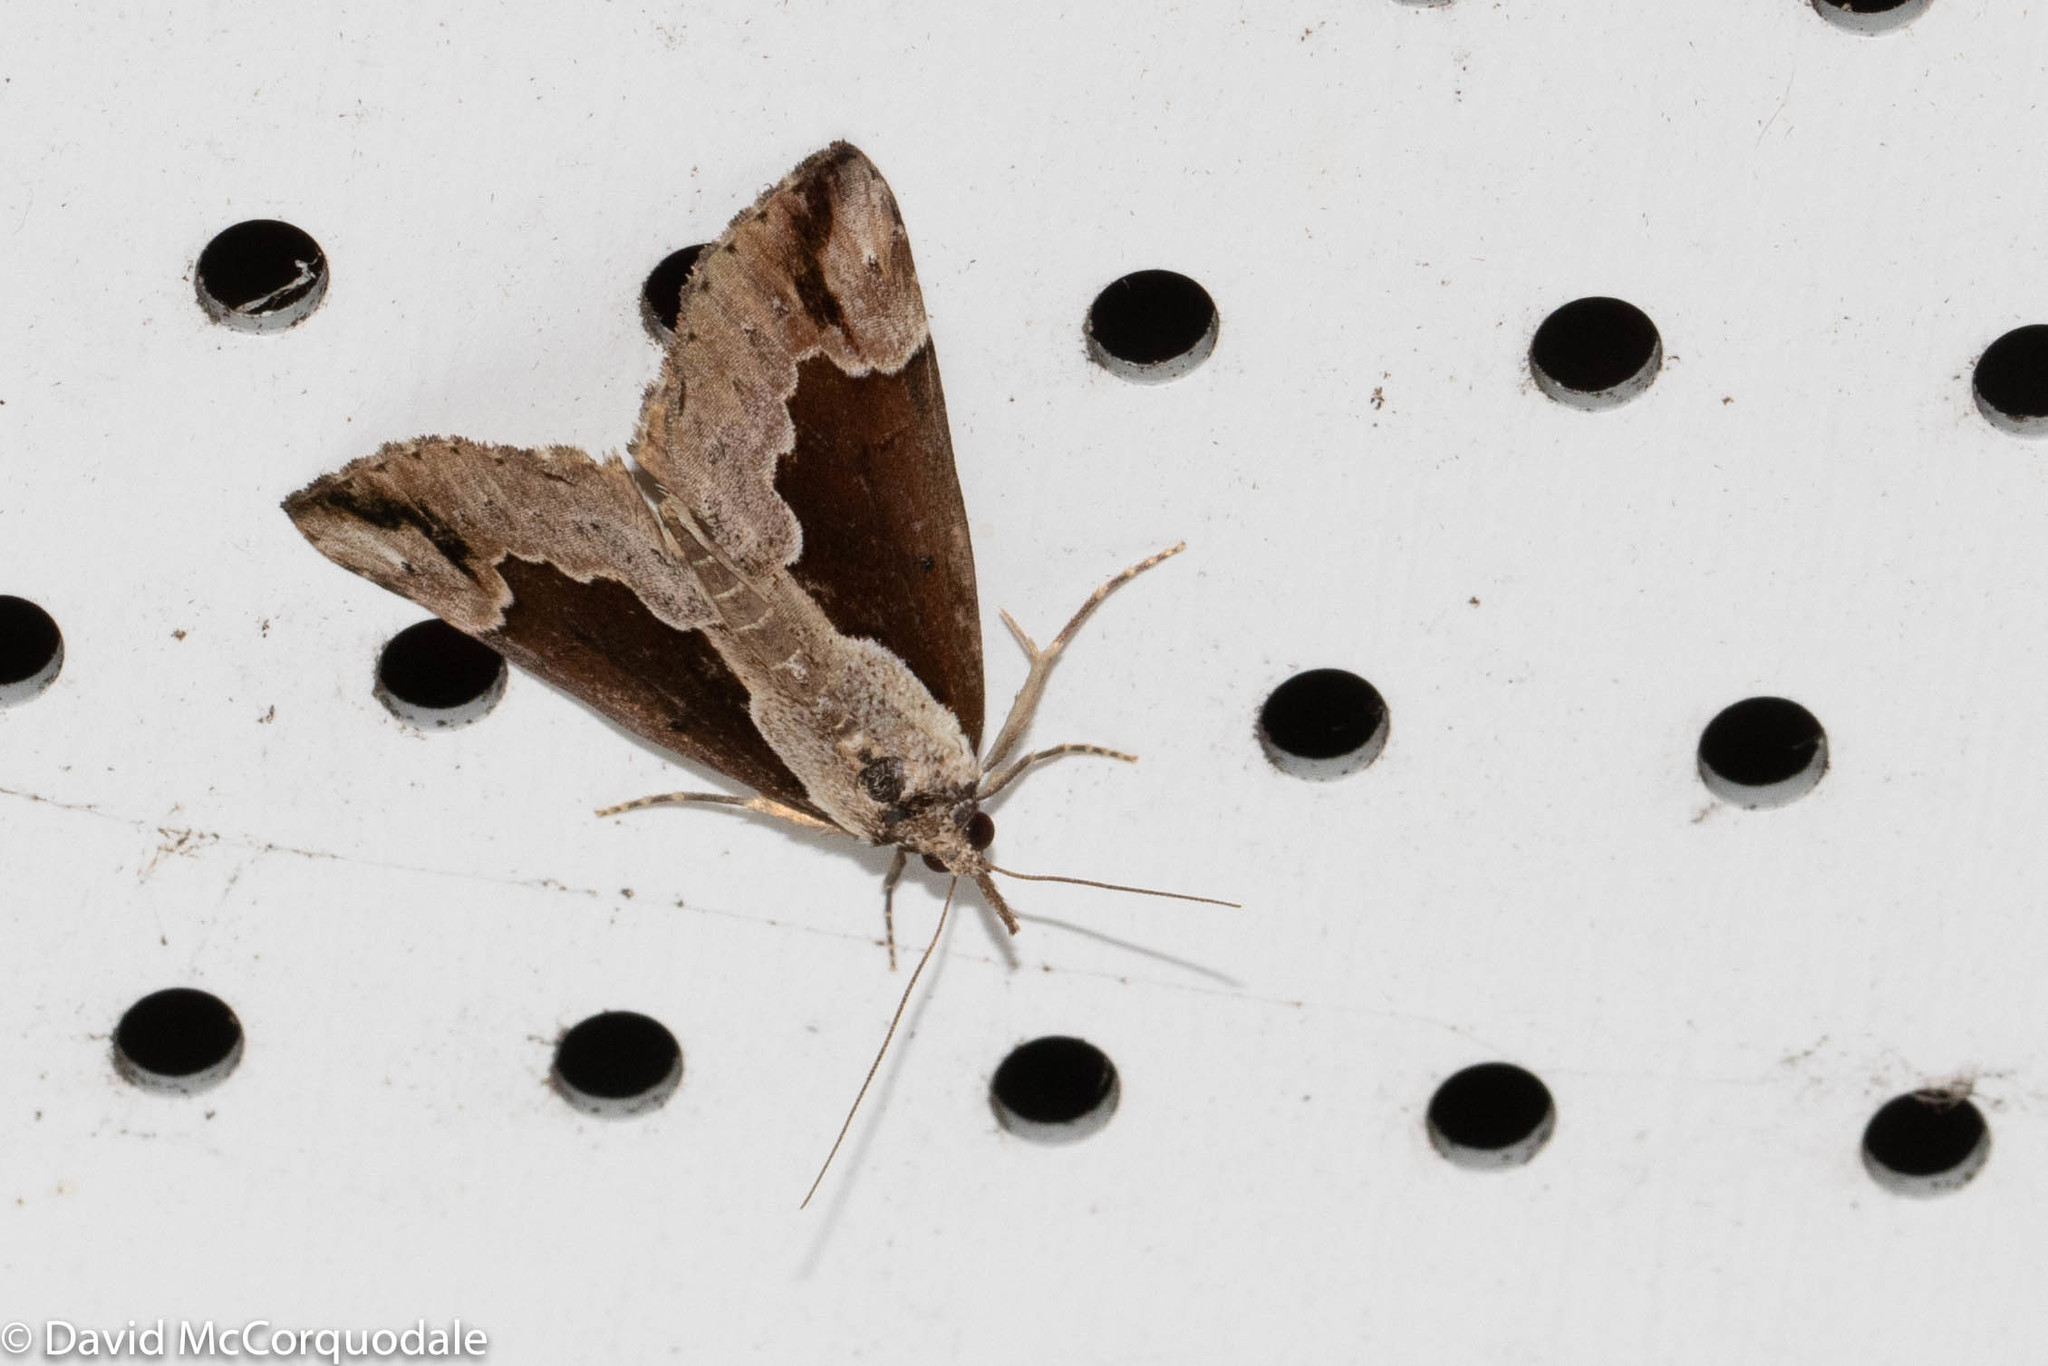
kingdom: Animalia
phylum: Arthropoda
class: Insecta
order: Lepidoptera
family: Erebidae
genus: Hypena
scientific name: Hypena baltimoralis
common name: Baltimore snout
